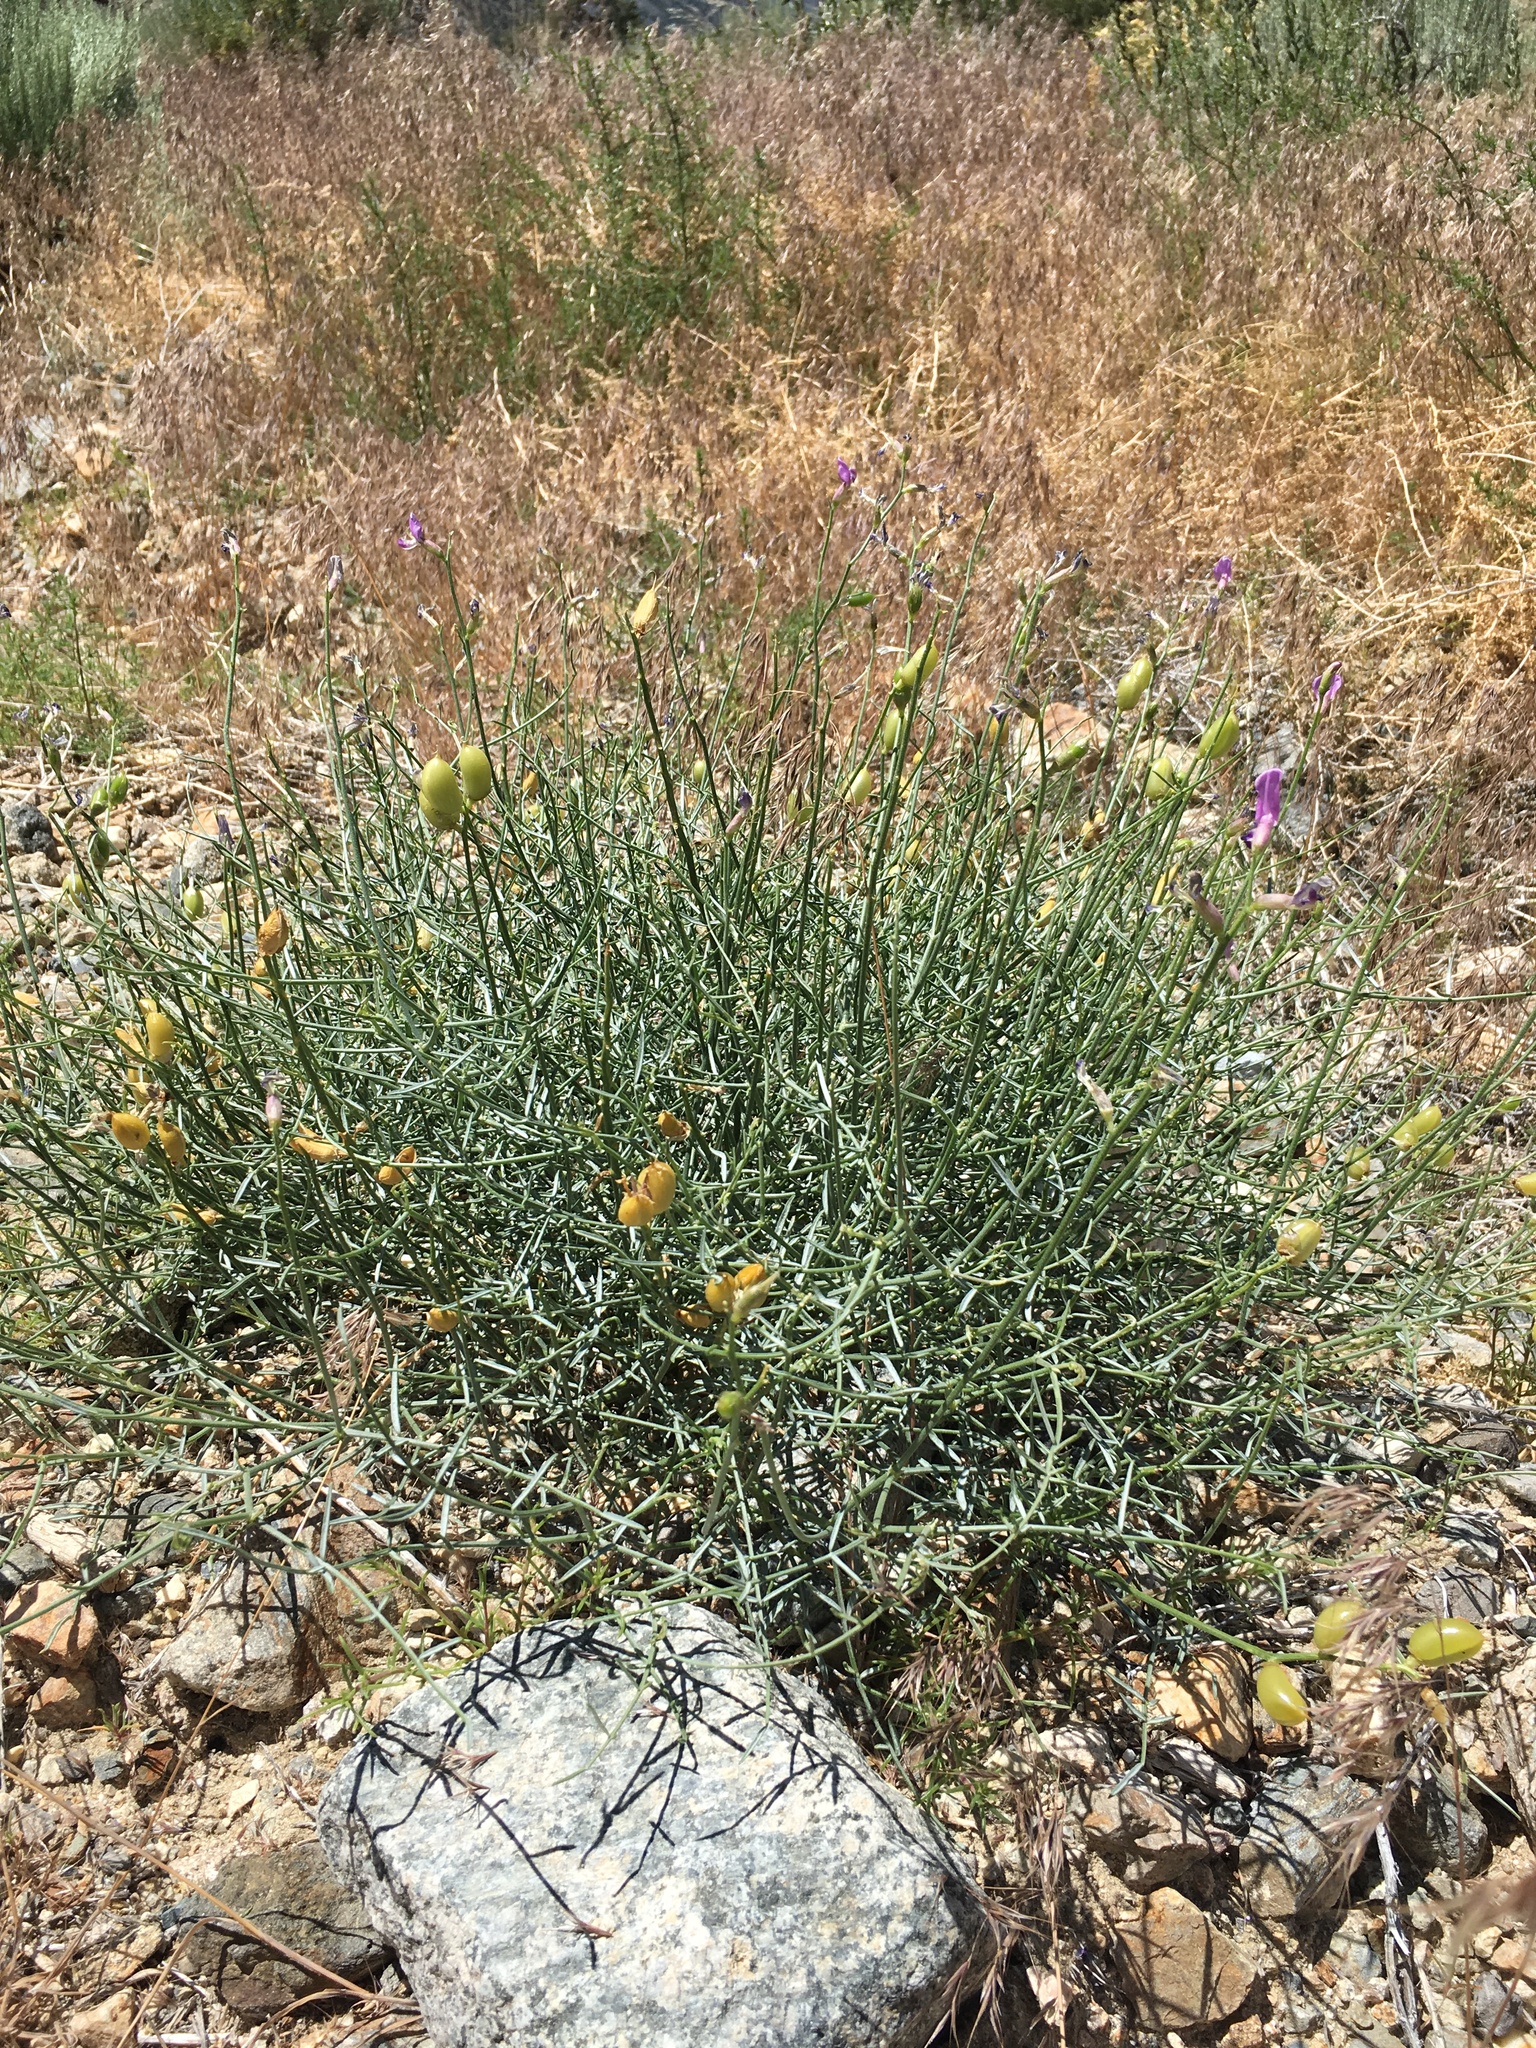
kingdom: Plantae
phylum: Tracheophyta
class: Magnoliopsida
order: Fabales
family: Fabaceae
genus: Astragalus
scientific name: Astragalus serenoi
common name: Naked milk-vetch
